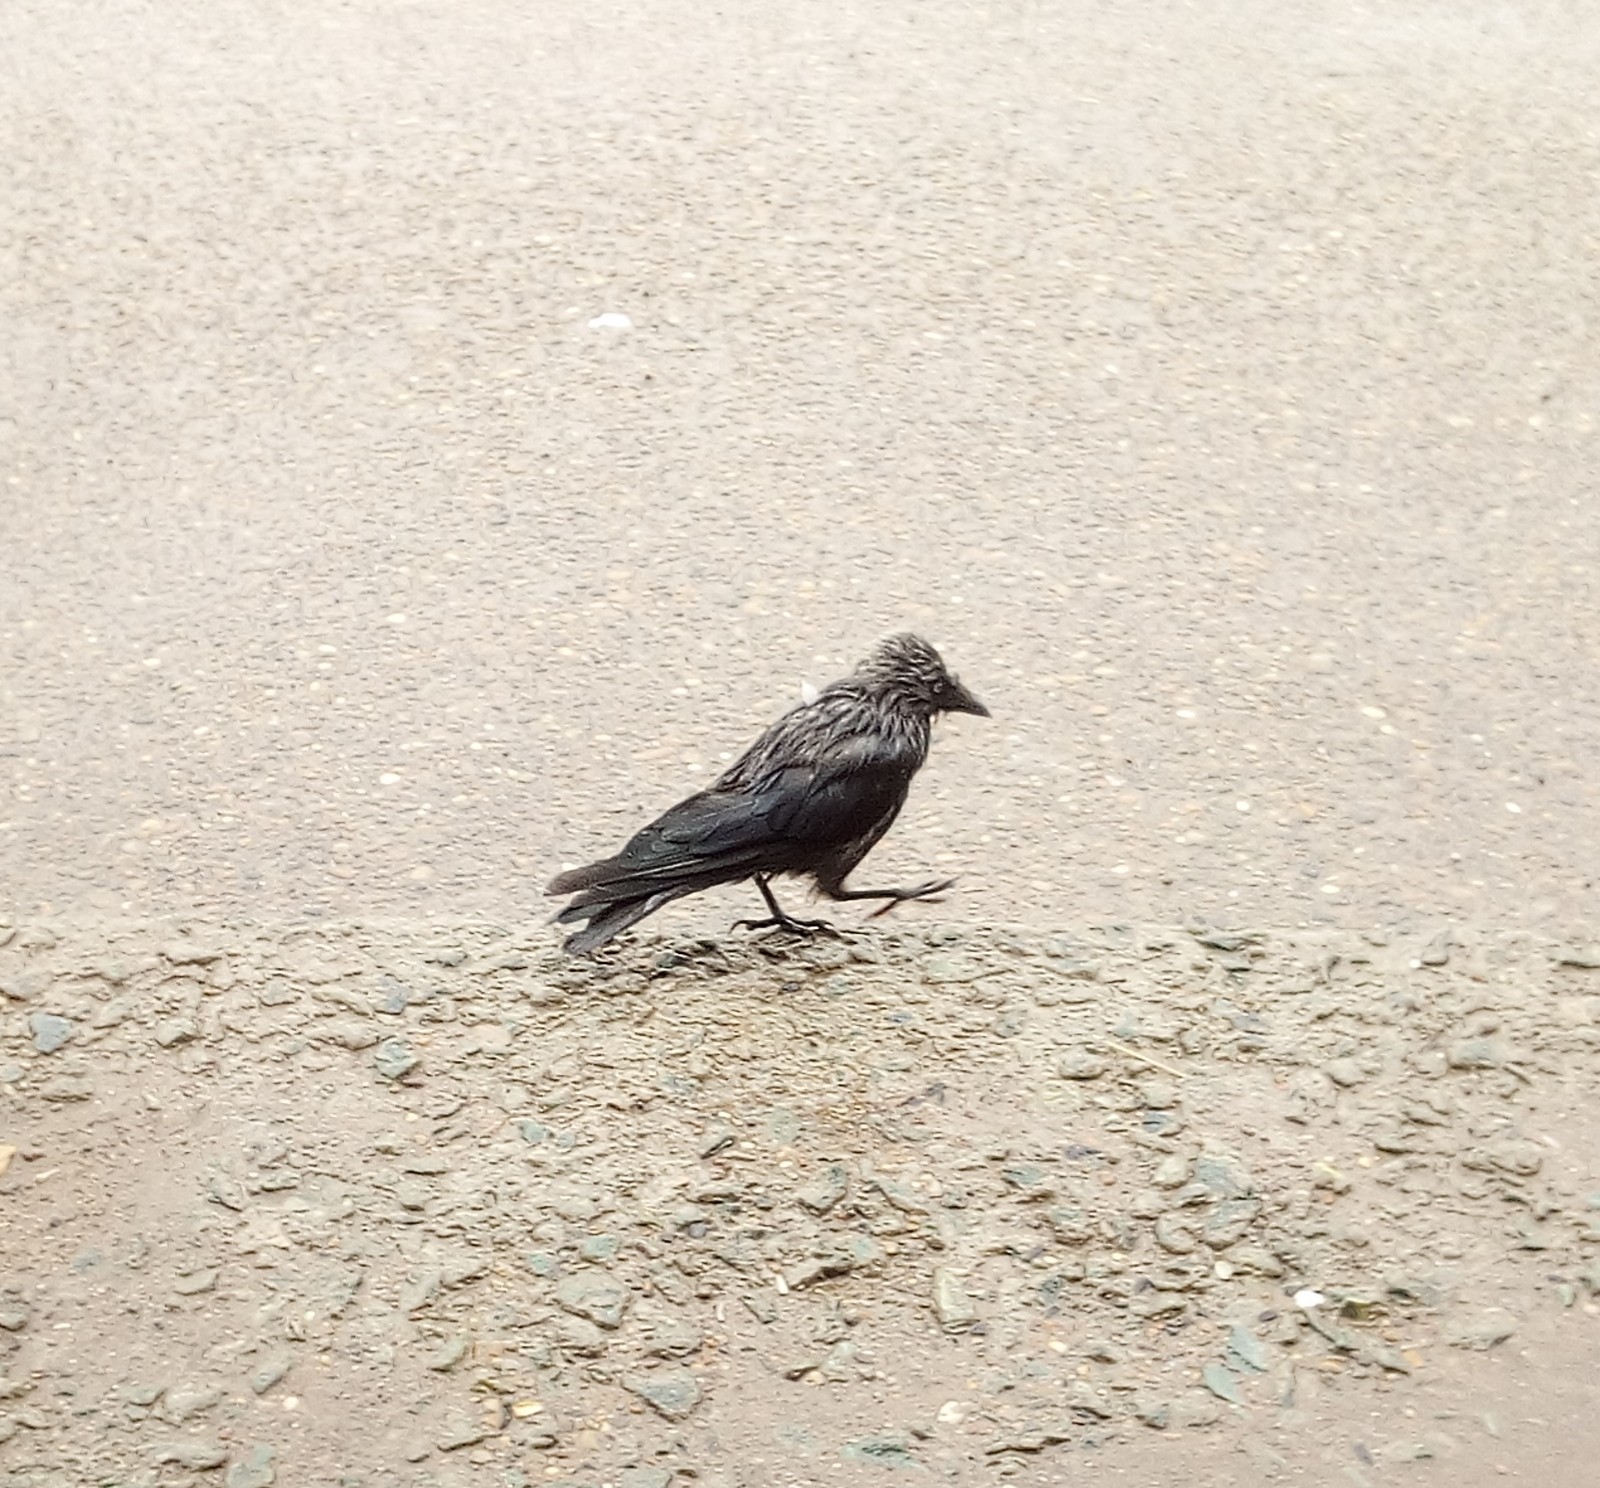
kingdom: Animalia
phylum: Chordata
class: Aves
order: Passeriformes
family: Corvidae
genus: Coloeus
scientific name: Coloeus monedula
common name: Western jackdaw
